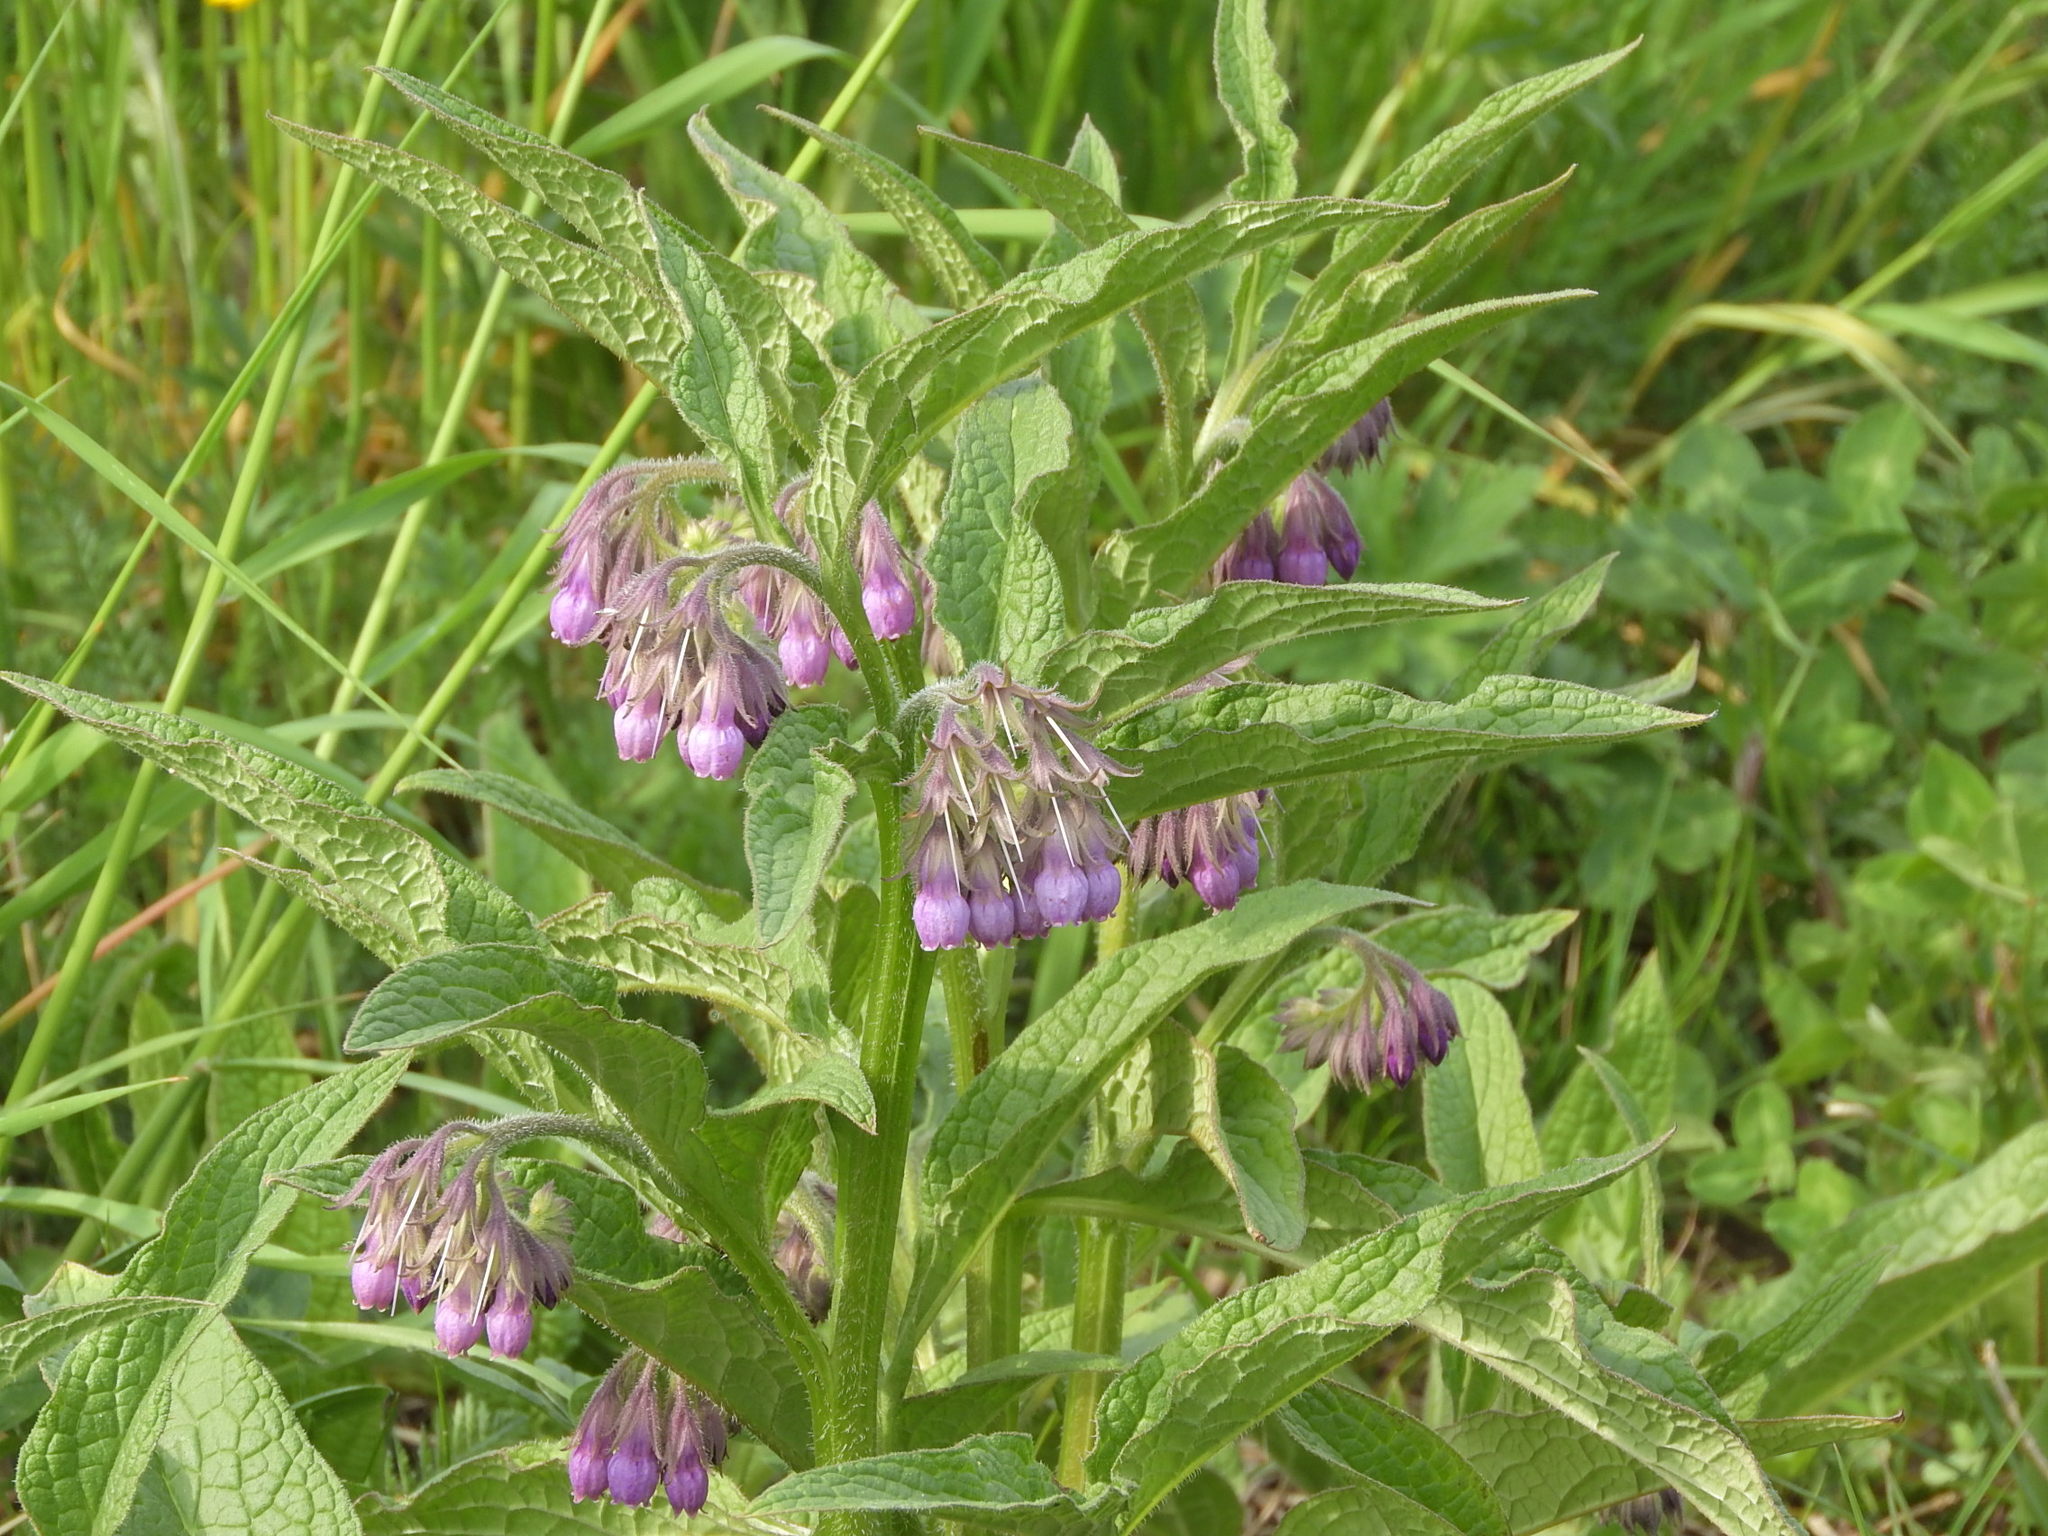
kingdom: Plantae
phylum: Tracheophyta
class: Magnoliopsida
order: Boraginales
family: Boraginaceae
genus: Symphytum
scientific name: Symphytum officinale
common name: Common comfrey
